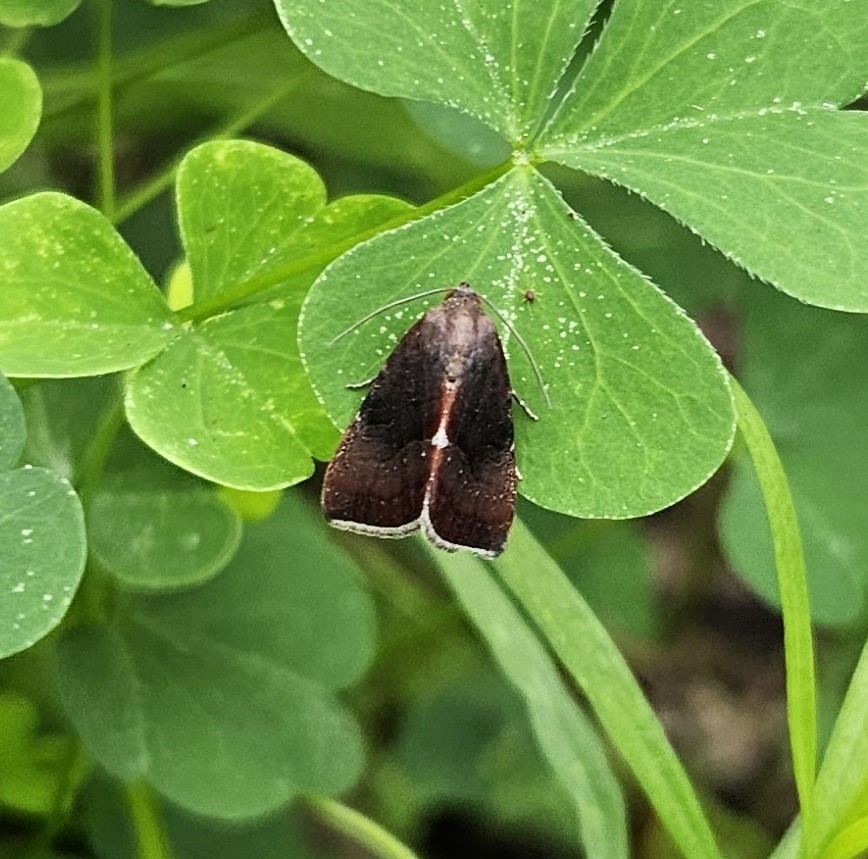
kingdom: Animalia
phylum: Arthropoda
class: Insecta
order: Lepidoptera
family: Noctuidae
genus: Galgula
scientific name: Galgula partita
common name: Wedgeling
